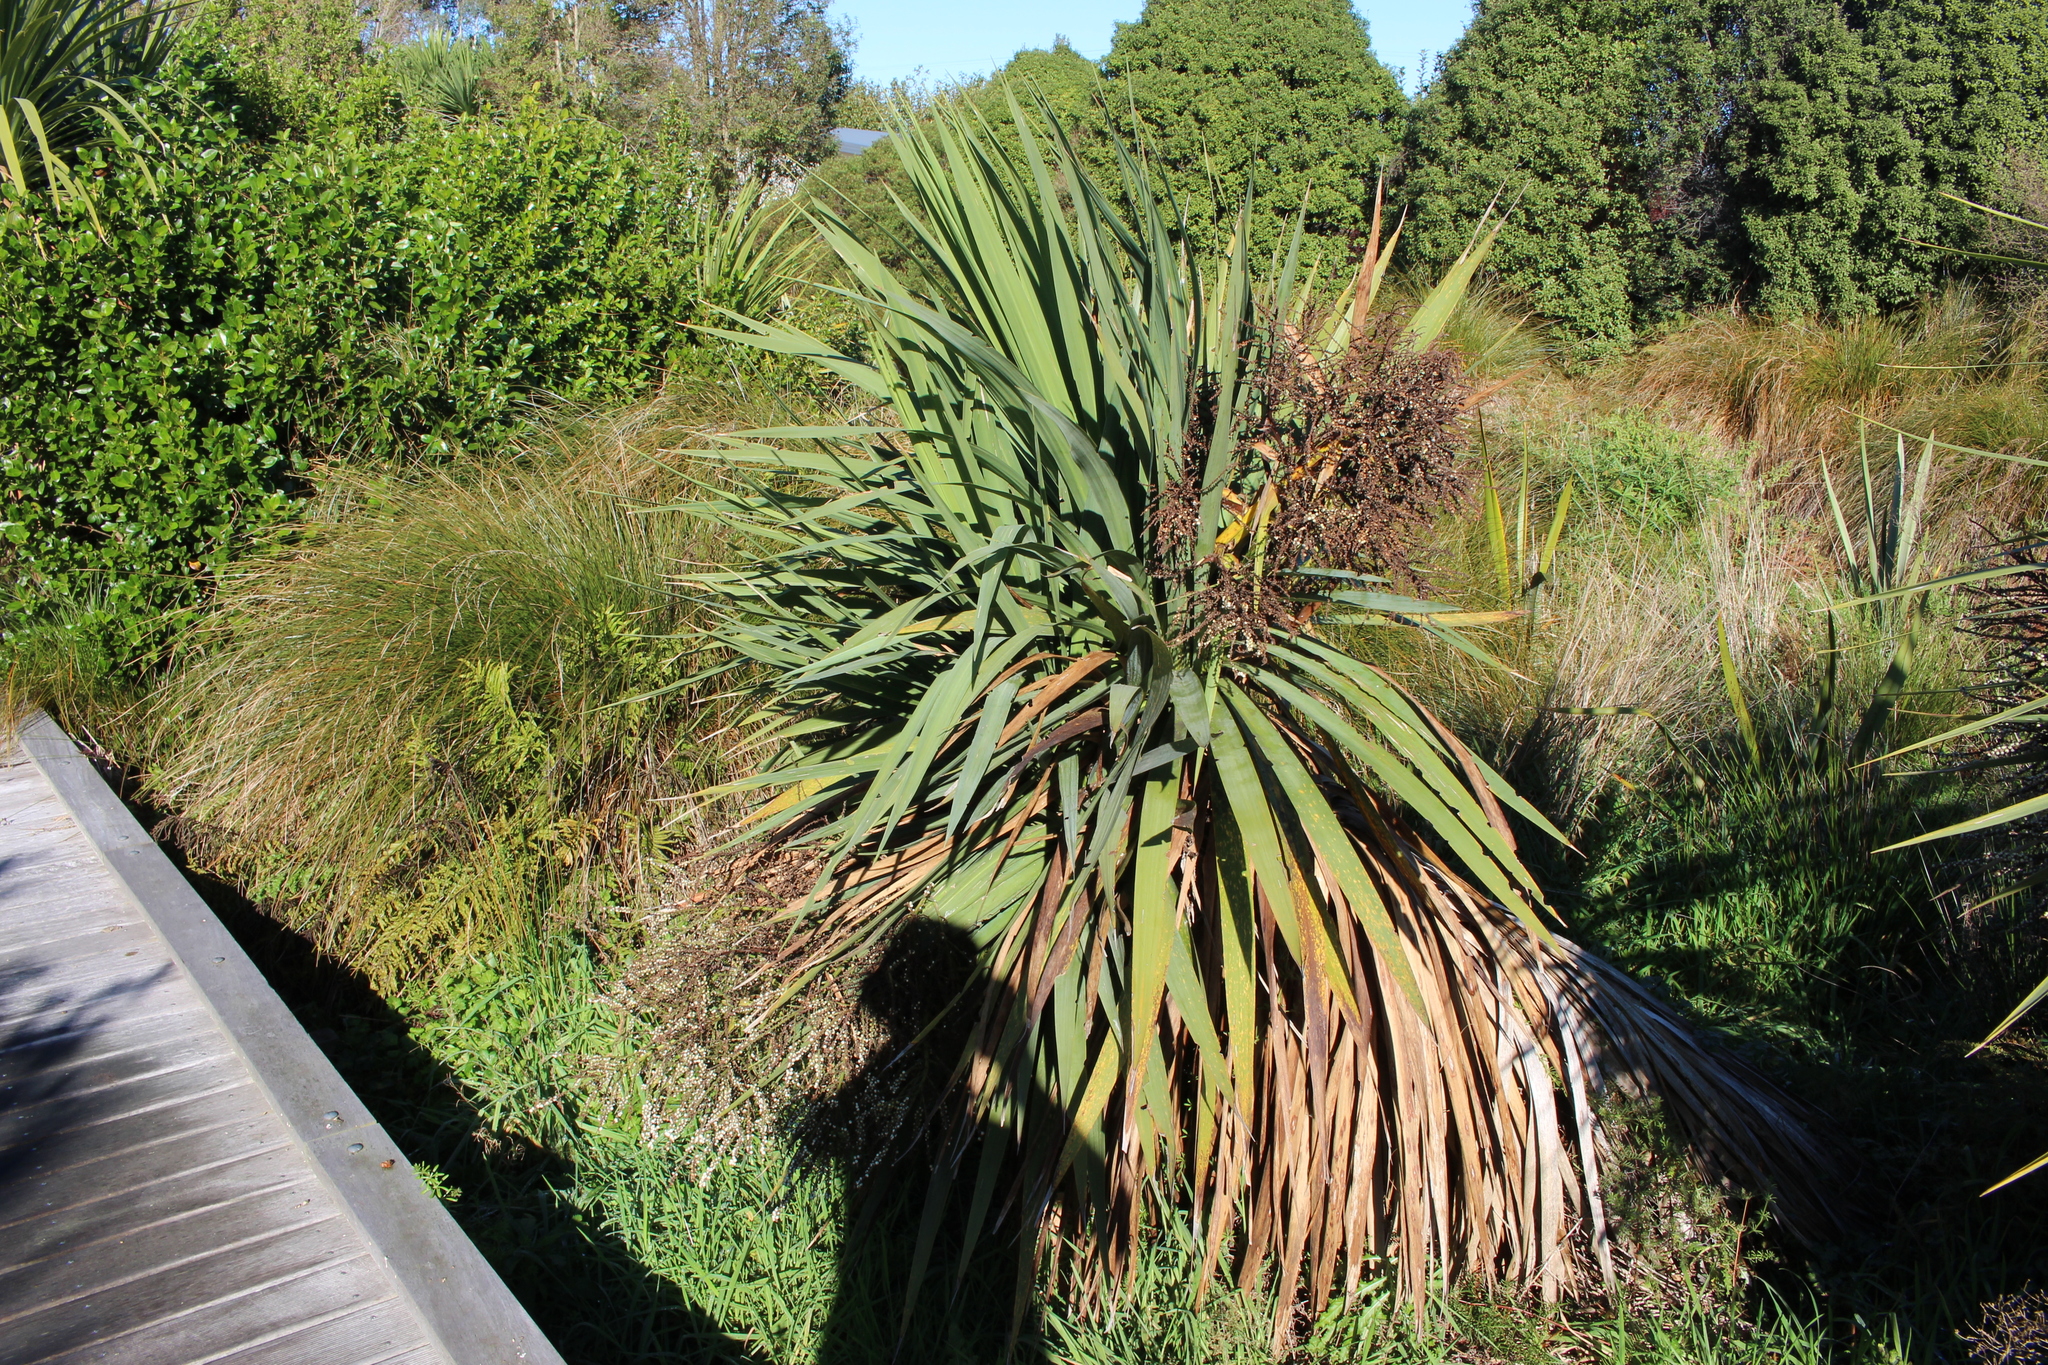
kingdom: Plantae
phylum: Tracheophyta
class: Liliopsida
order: Asparagales
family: Asparagaceae
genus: Cordyline
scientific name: Cordyline australis
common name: Cabbage-palm
